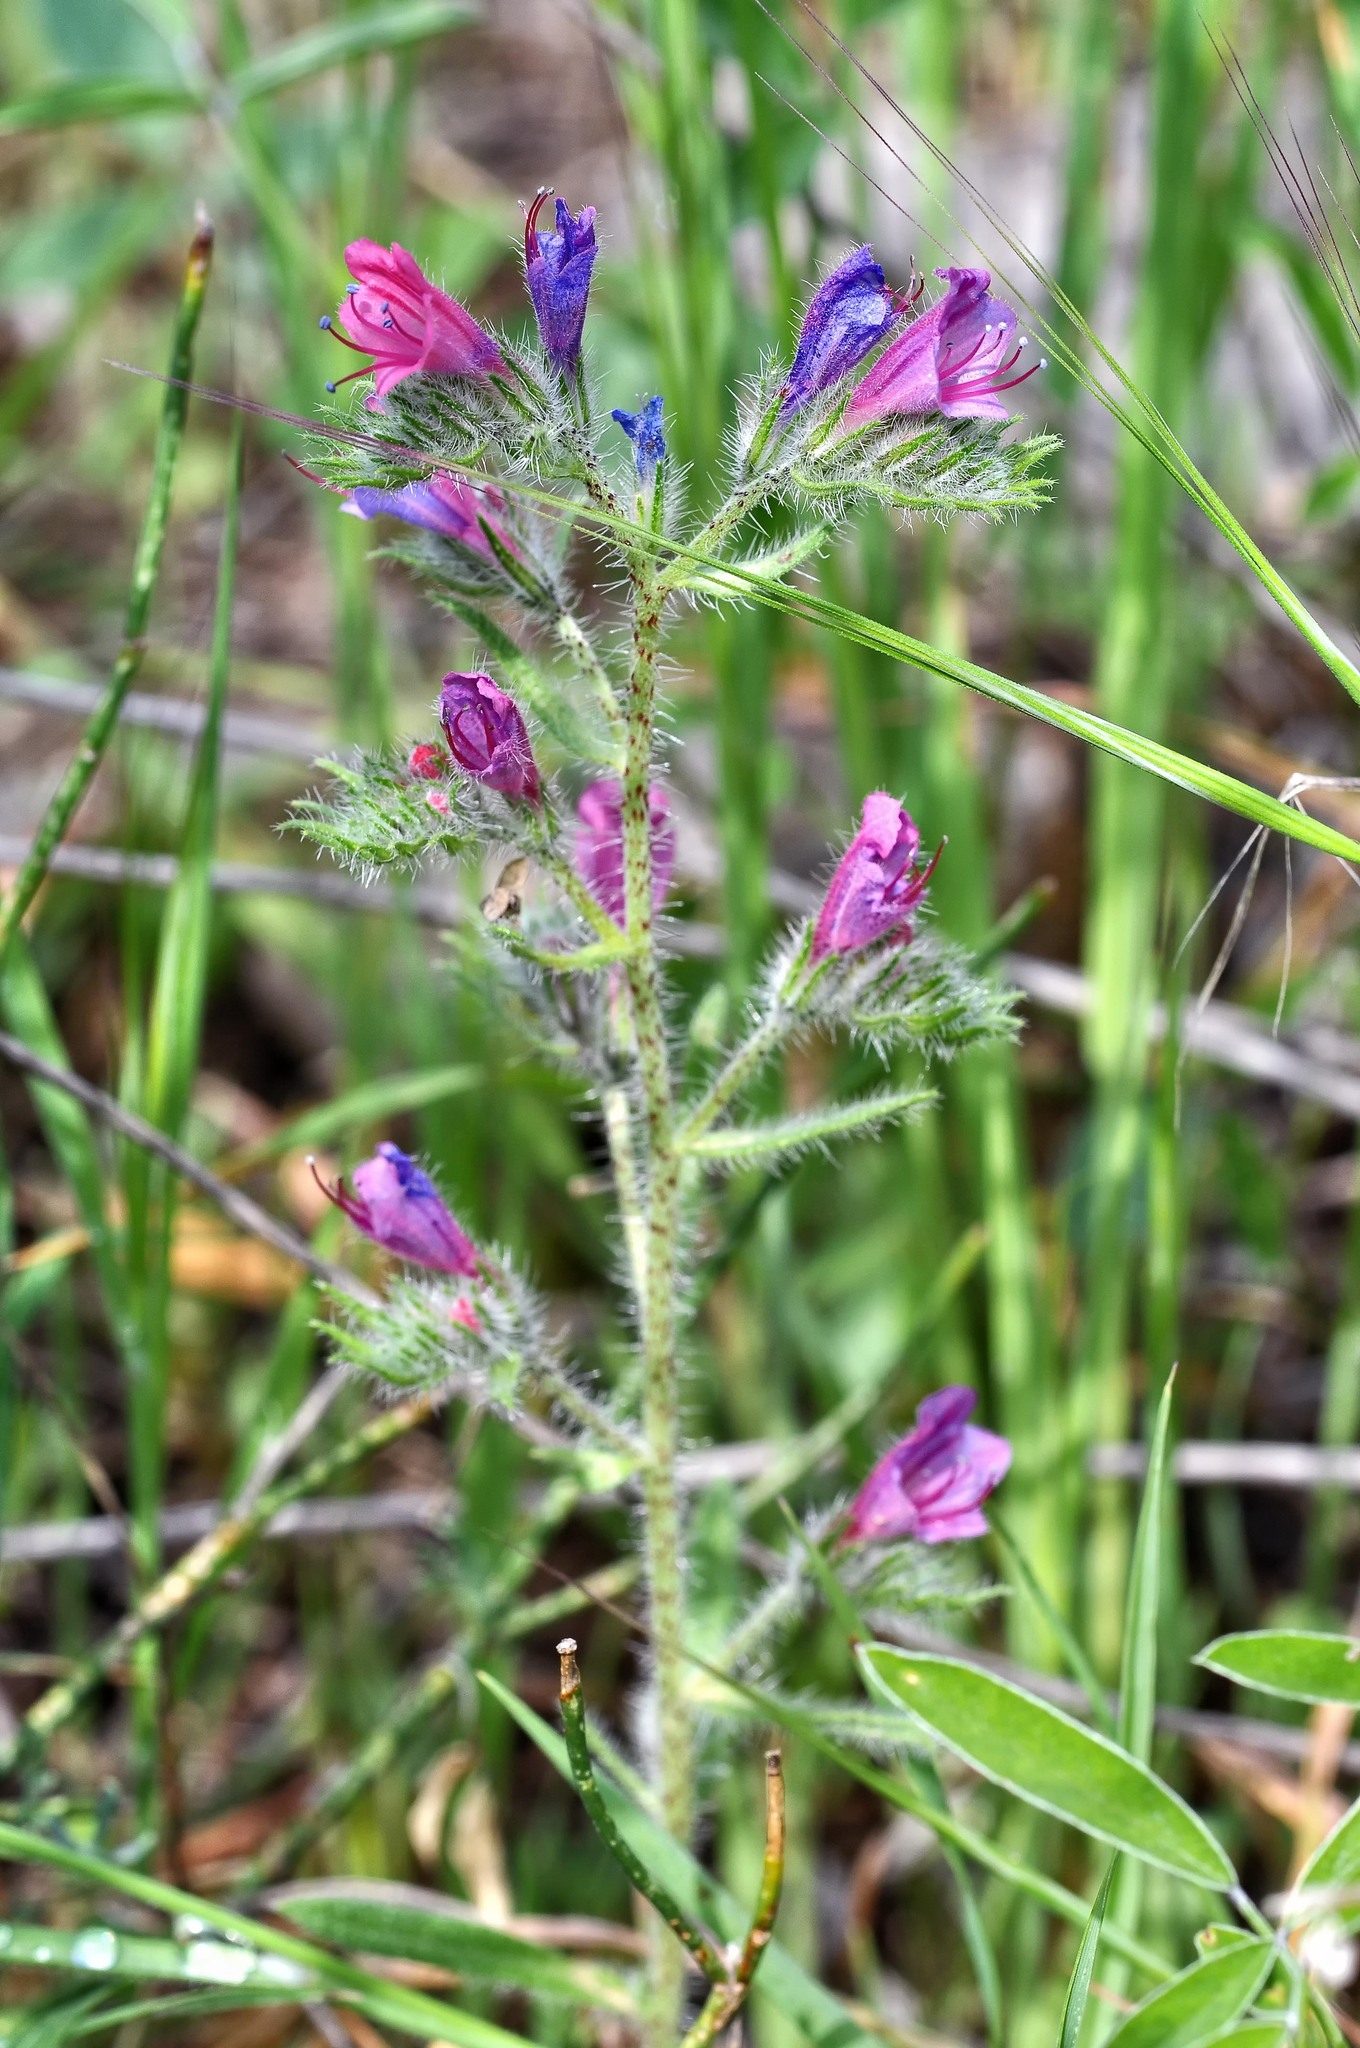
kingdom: Plantae
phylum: Tracheophyta
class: Magnoliopsida
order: Boraginales
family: Boraginaceae
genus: Echium
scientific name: Echium vulgare
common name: Common viper's bugloss
